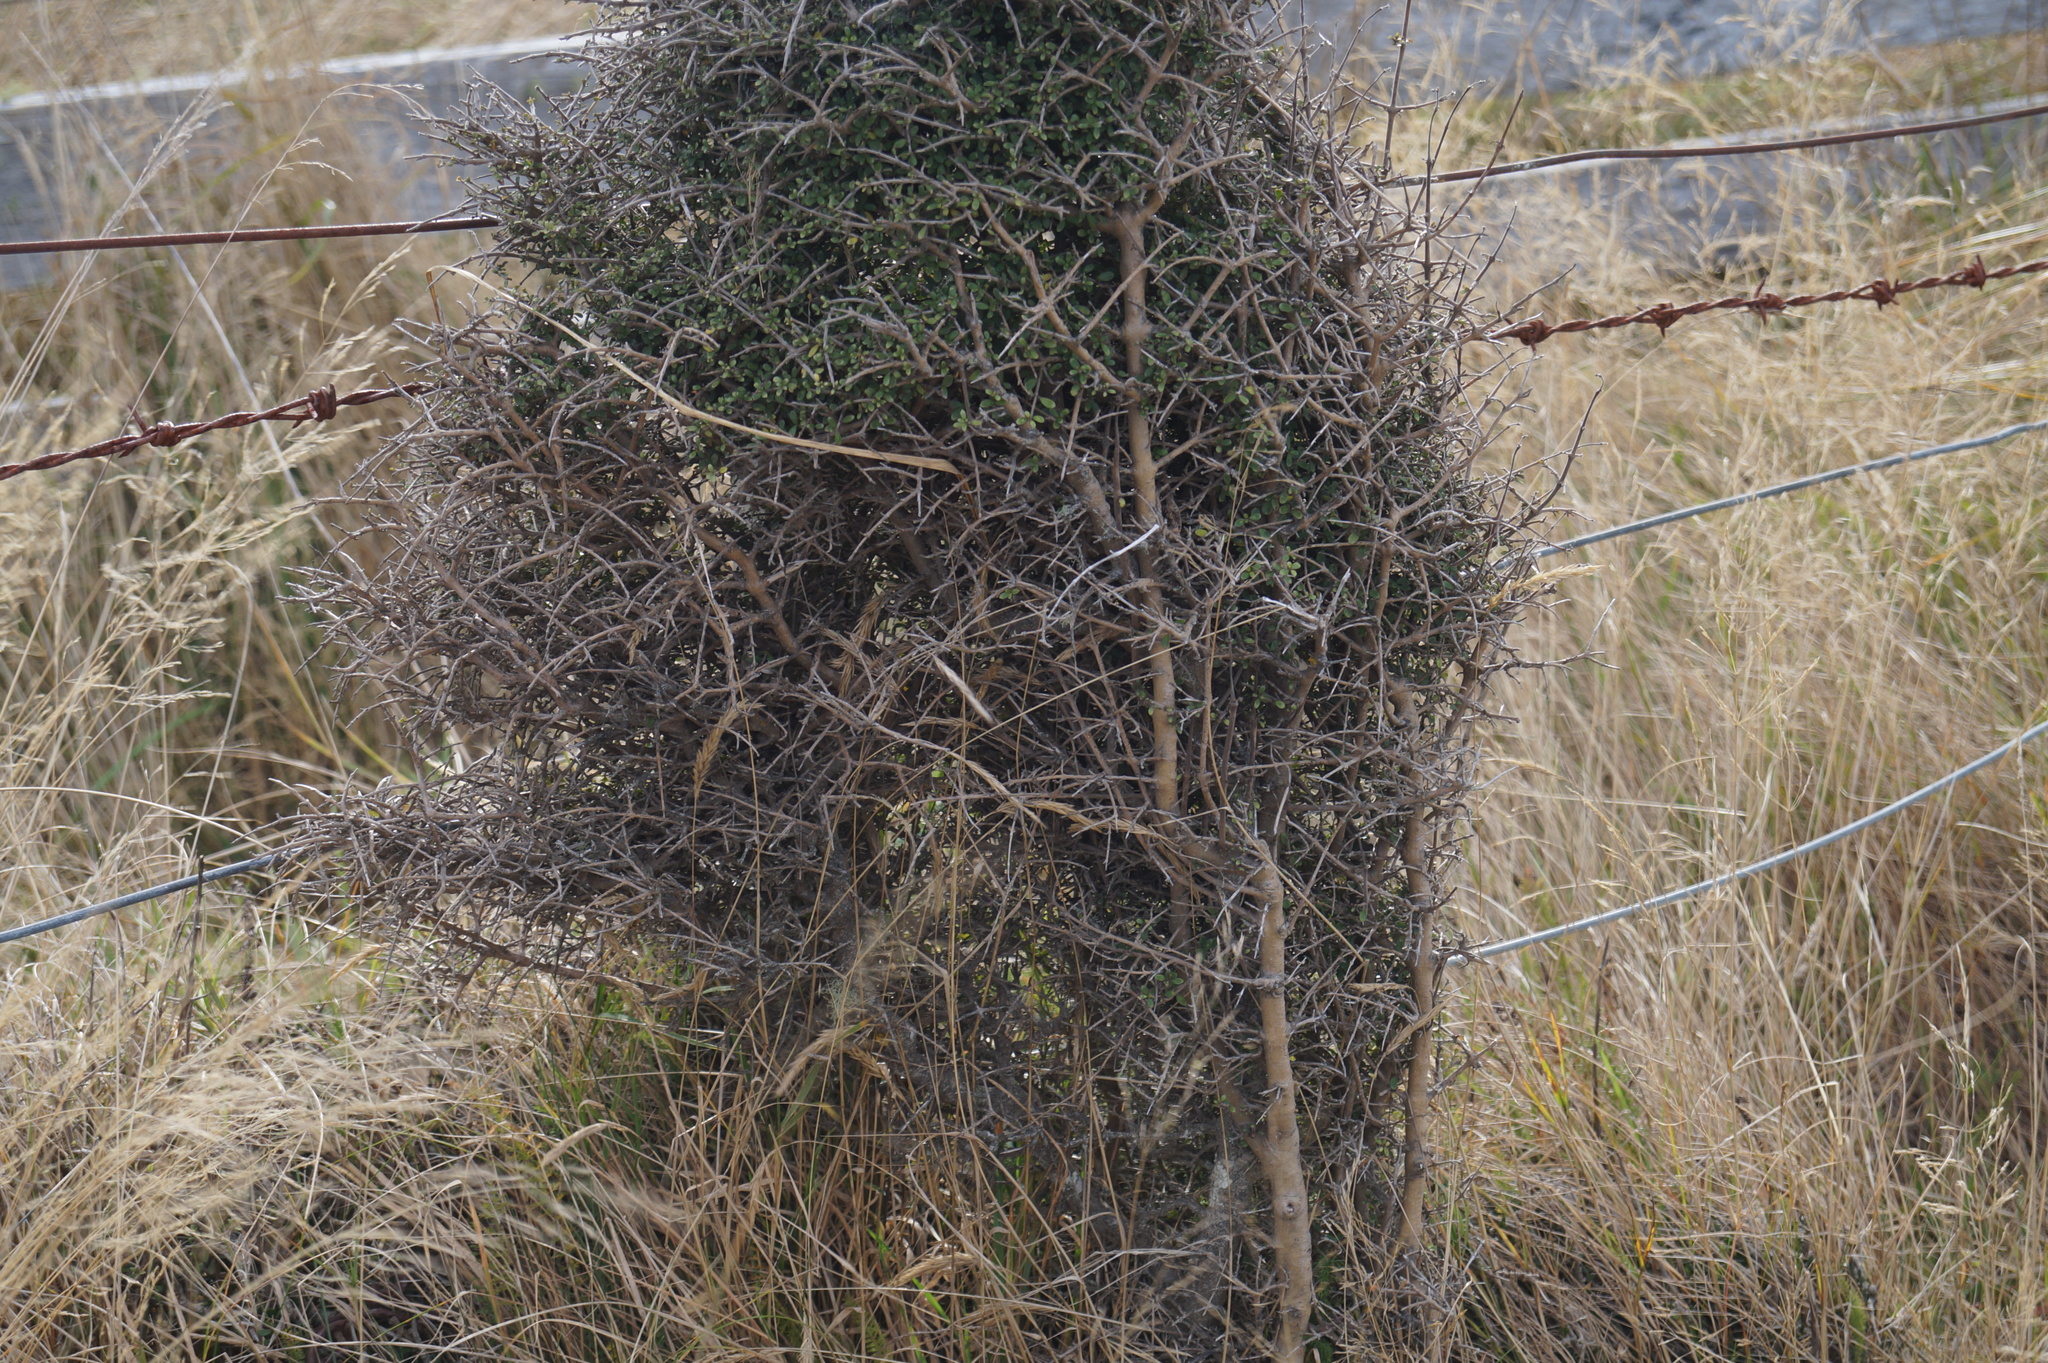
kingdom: Plantae
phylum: Tracheophyta
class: Magnoliopsida
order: Gentianales
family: Rubiaceae
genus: Coprosma
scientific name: Coprosma dumosa
